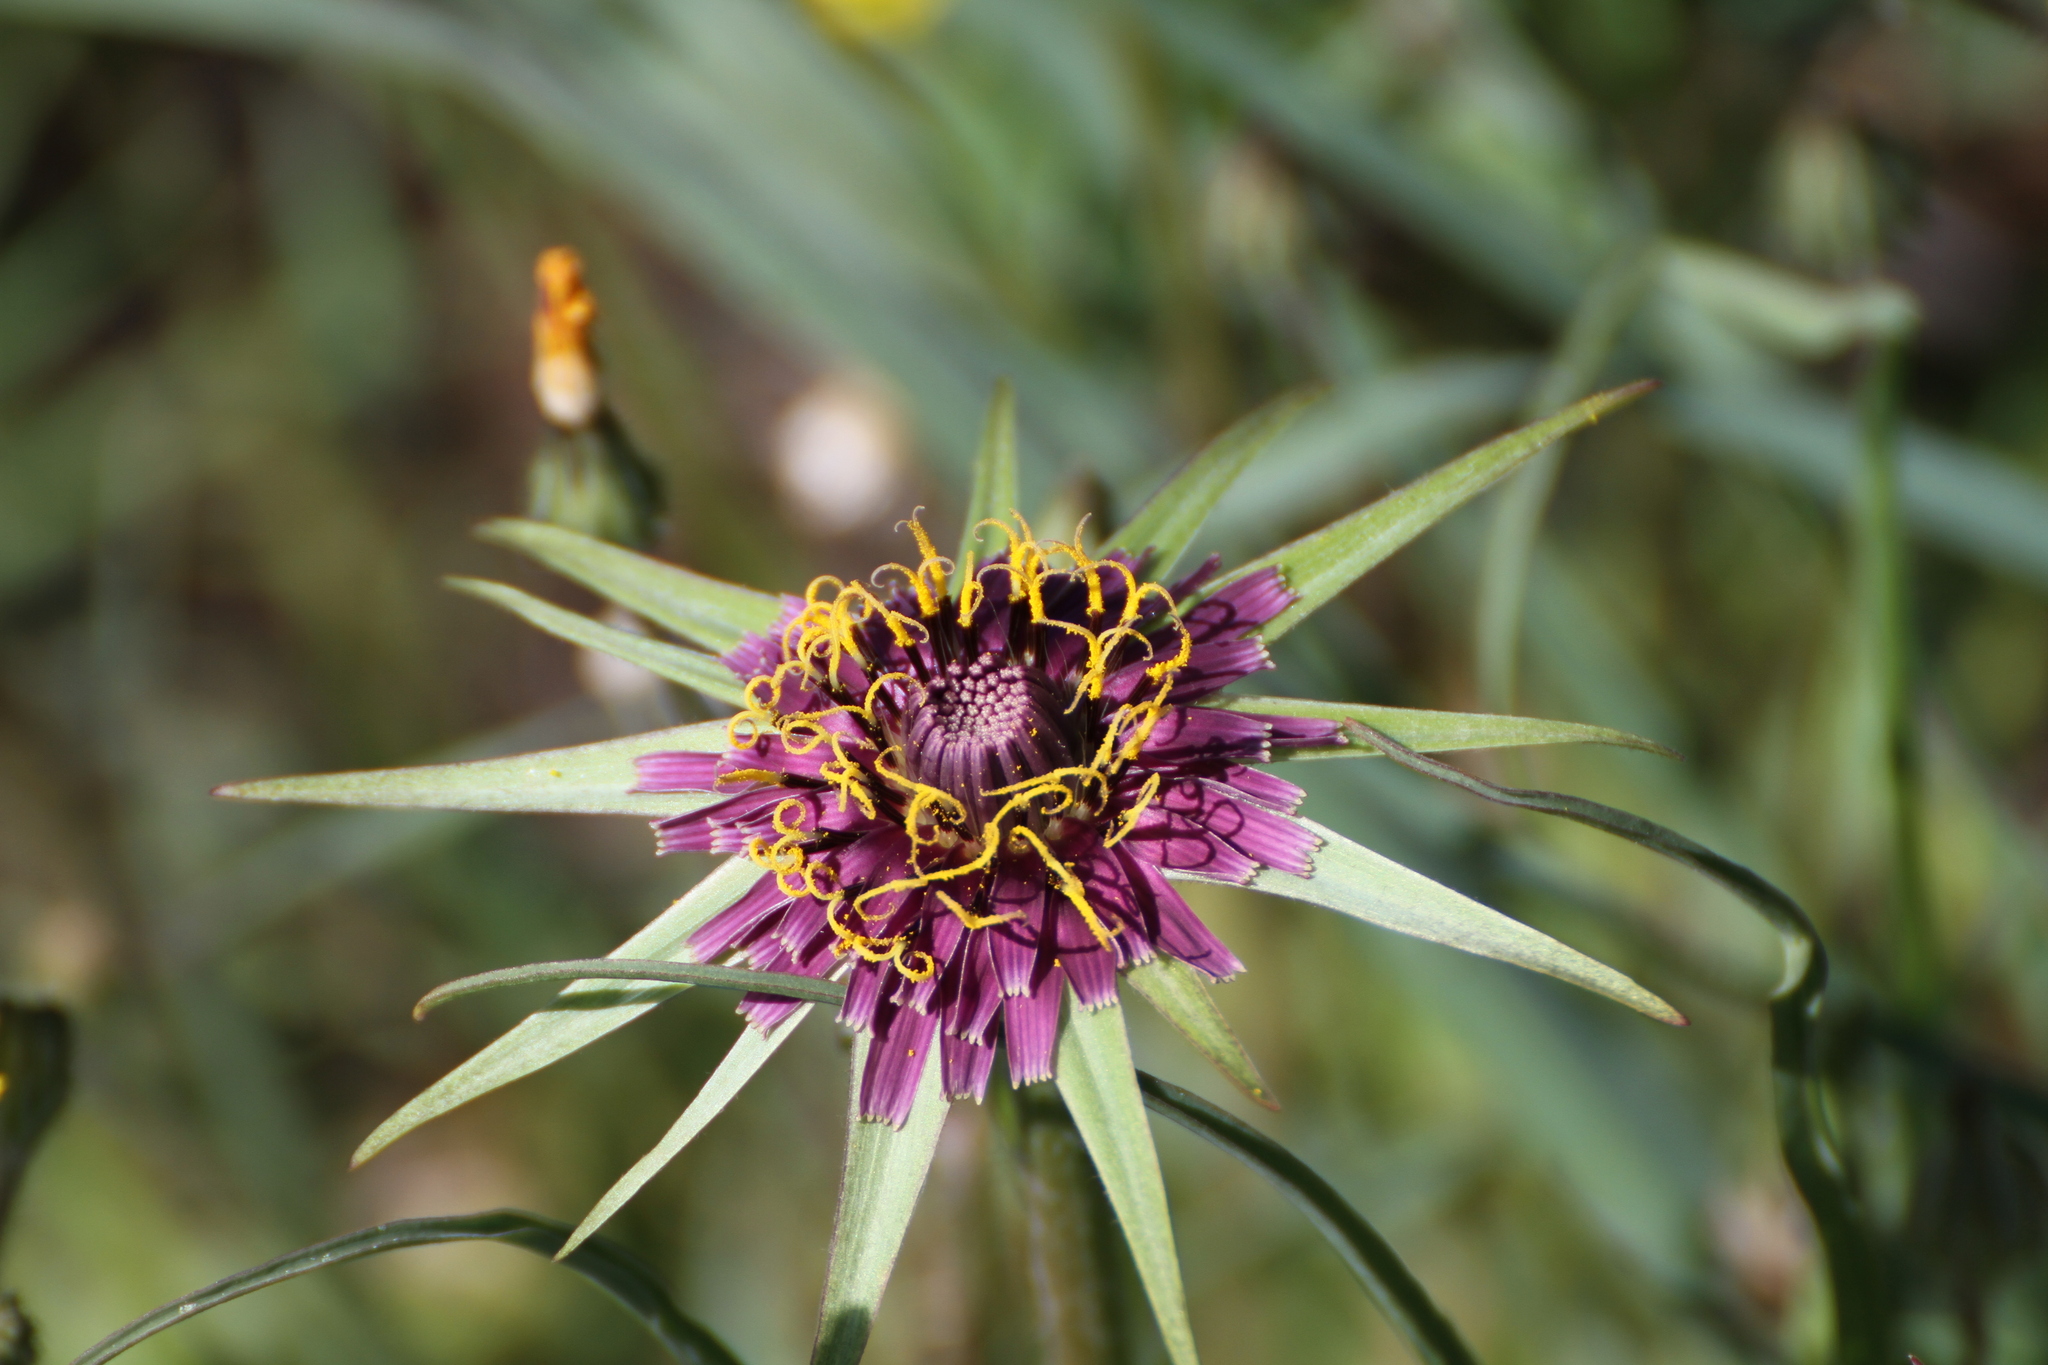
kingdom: Plantae
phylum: Tracheophyta
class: Magnoliopsida
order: Asterales
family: Asteraceae
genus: Tragopogon
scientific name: Tragopogon porrifolius
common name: Salsify
